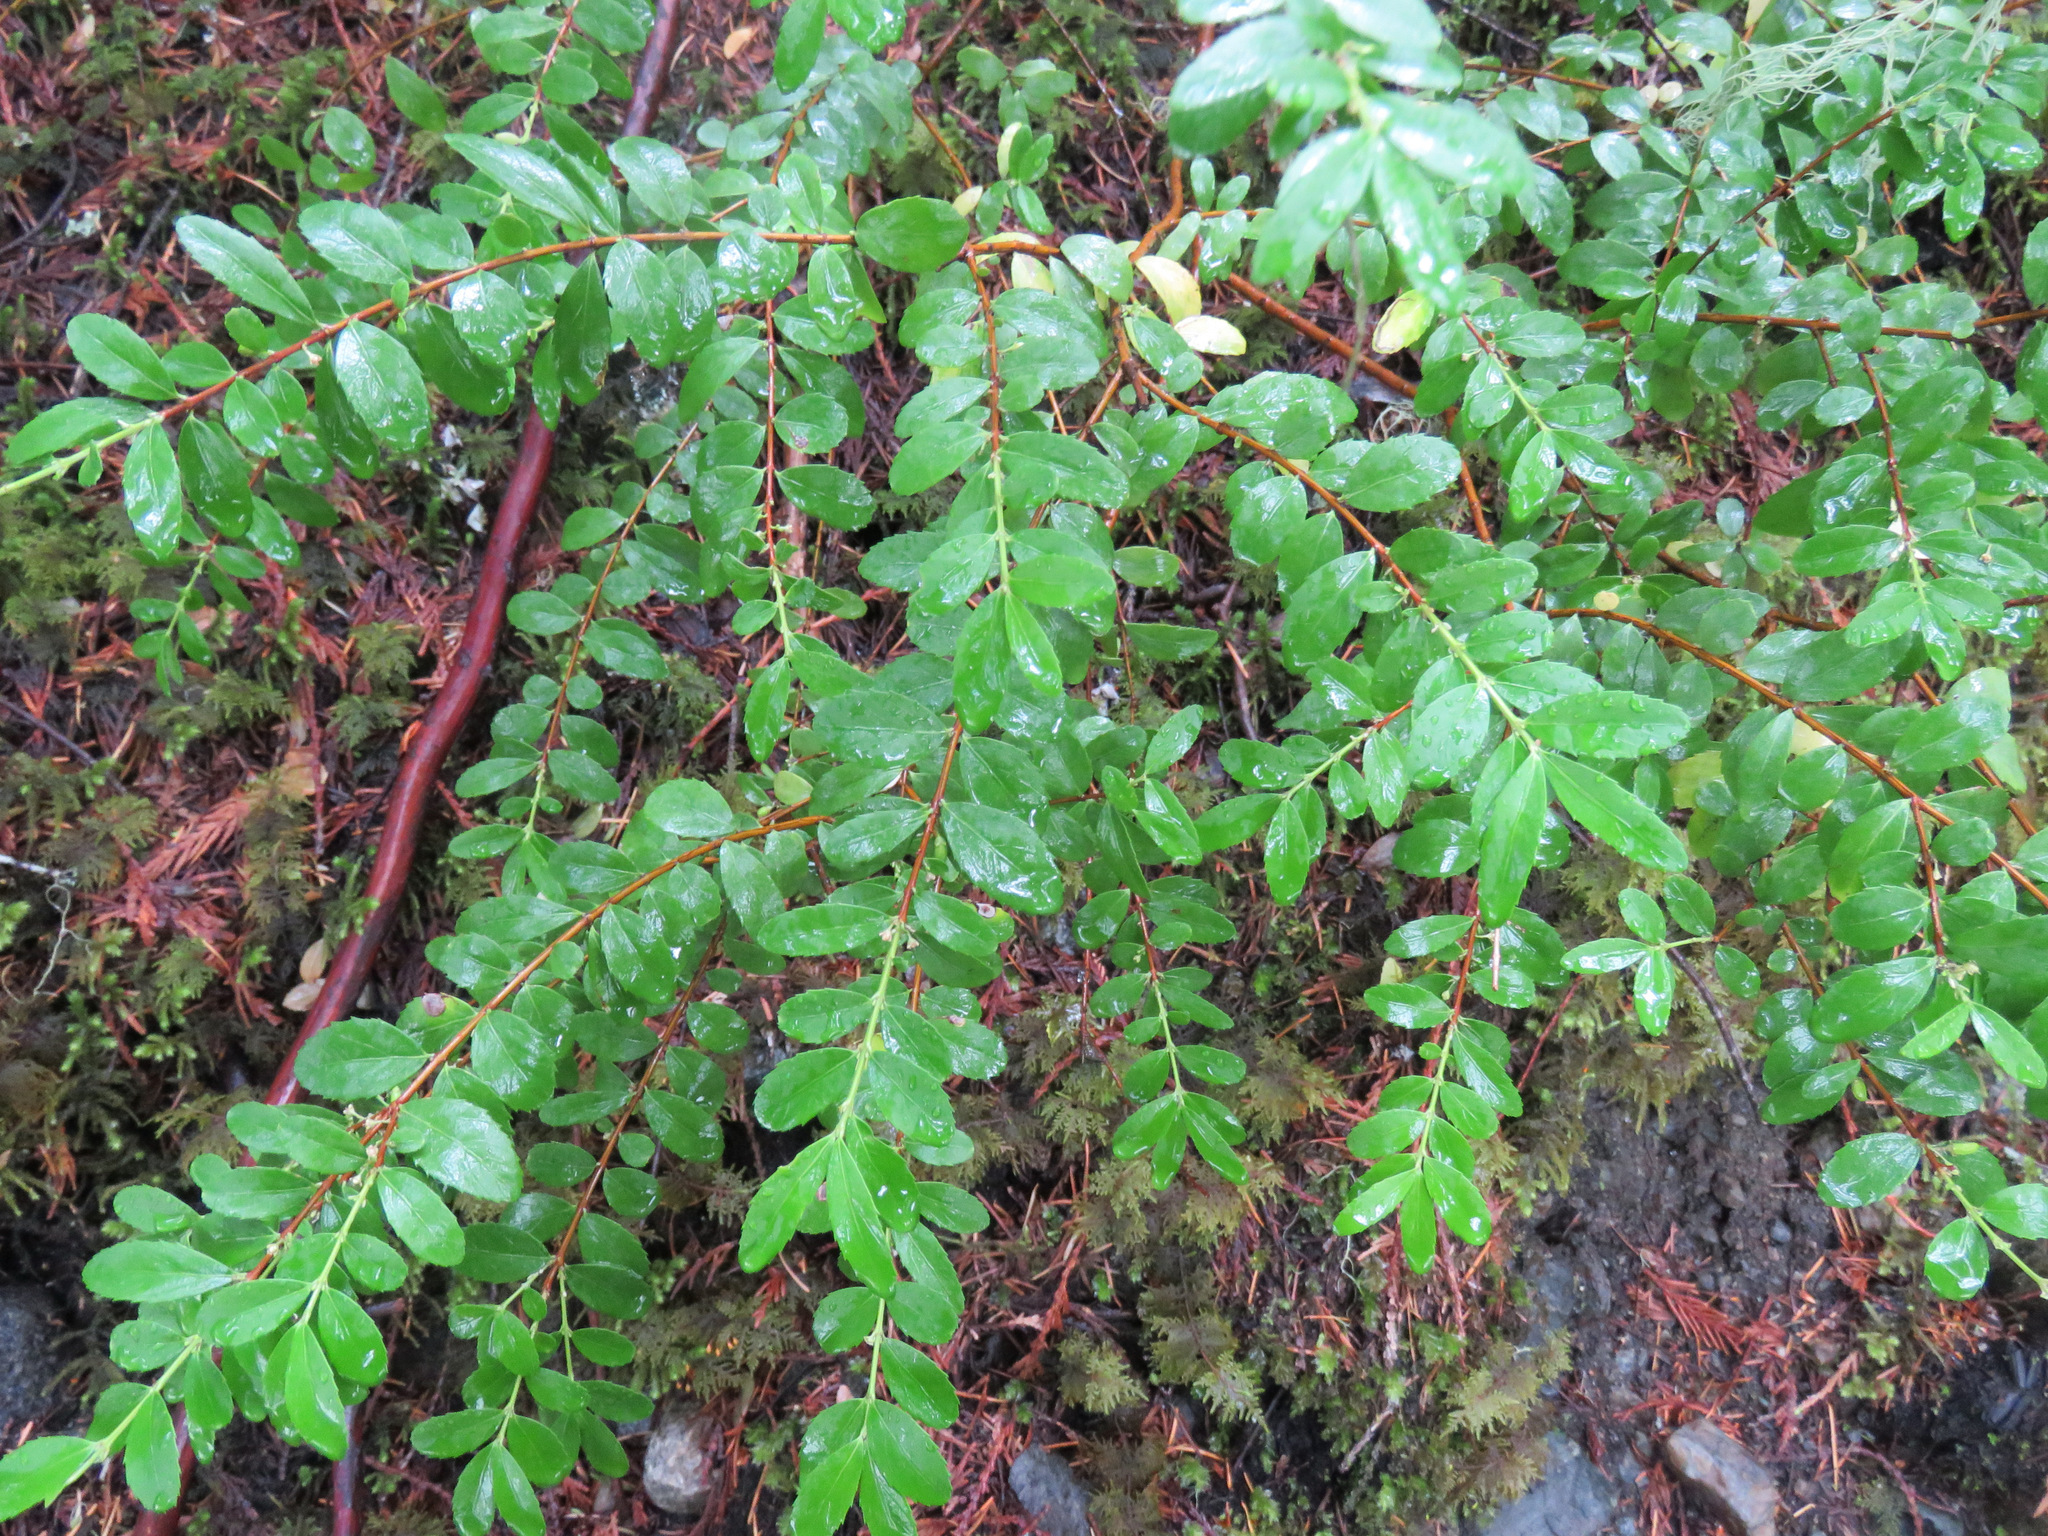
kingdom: Plantae
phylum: Tracheophyta
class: Magnoliopsida
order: Celastrales
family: Celastraceae
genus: Paxistima
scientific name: Paxistima myrsinites
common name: Mountain-lover
